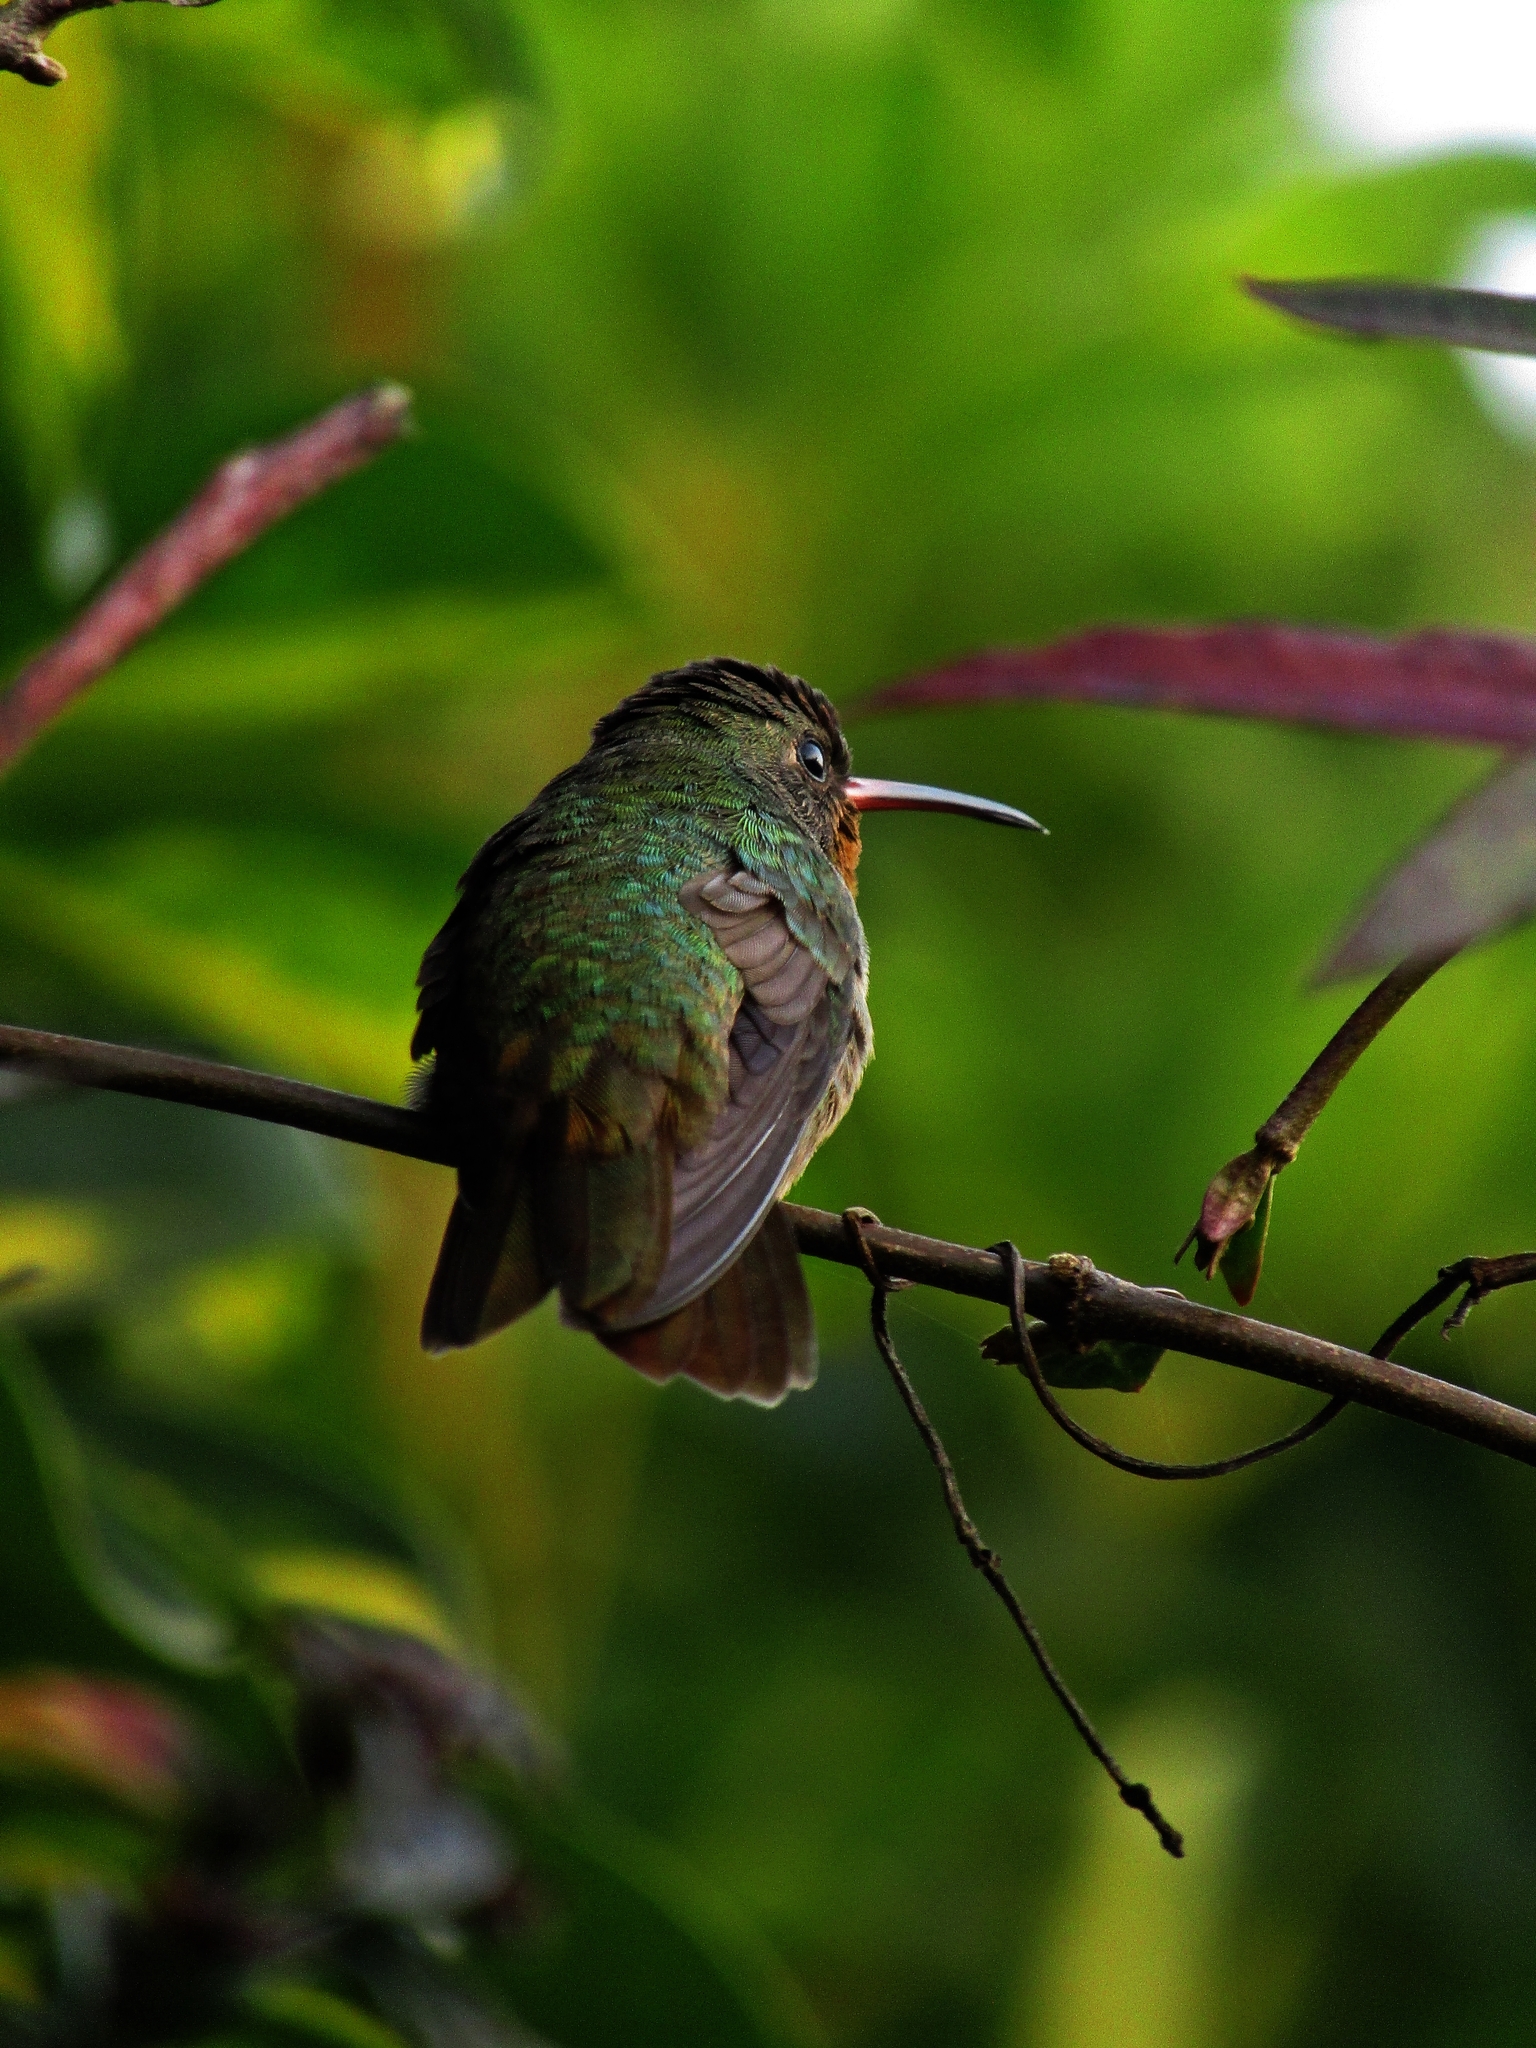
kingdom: Animalia
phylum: Chordata
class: Aves
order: Apodiformes
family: Trochilidae
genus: Hylocharis
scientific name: Hylocharis chrysura
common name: Gilded sapphire
